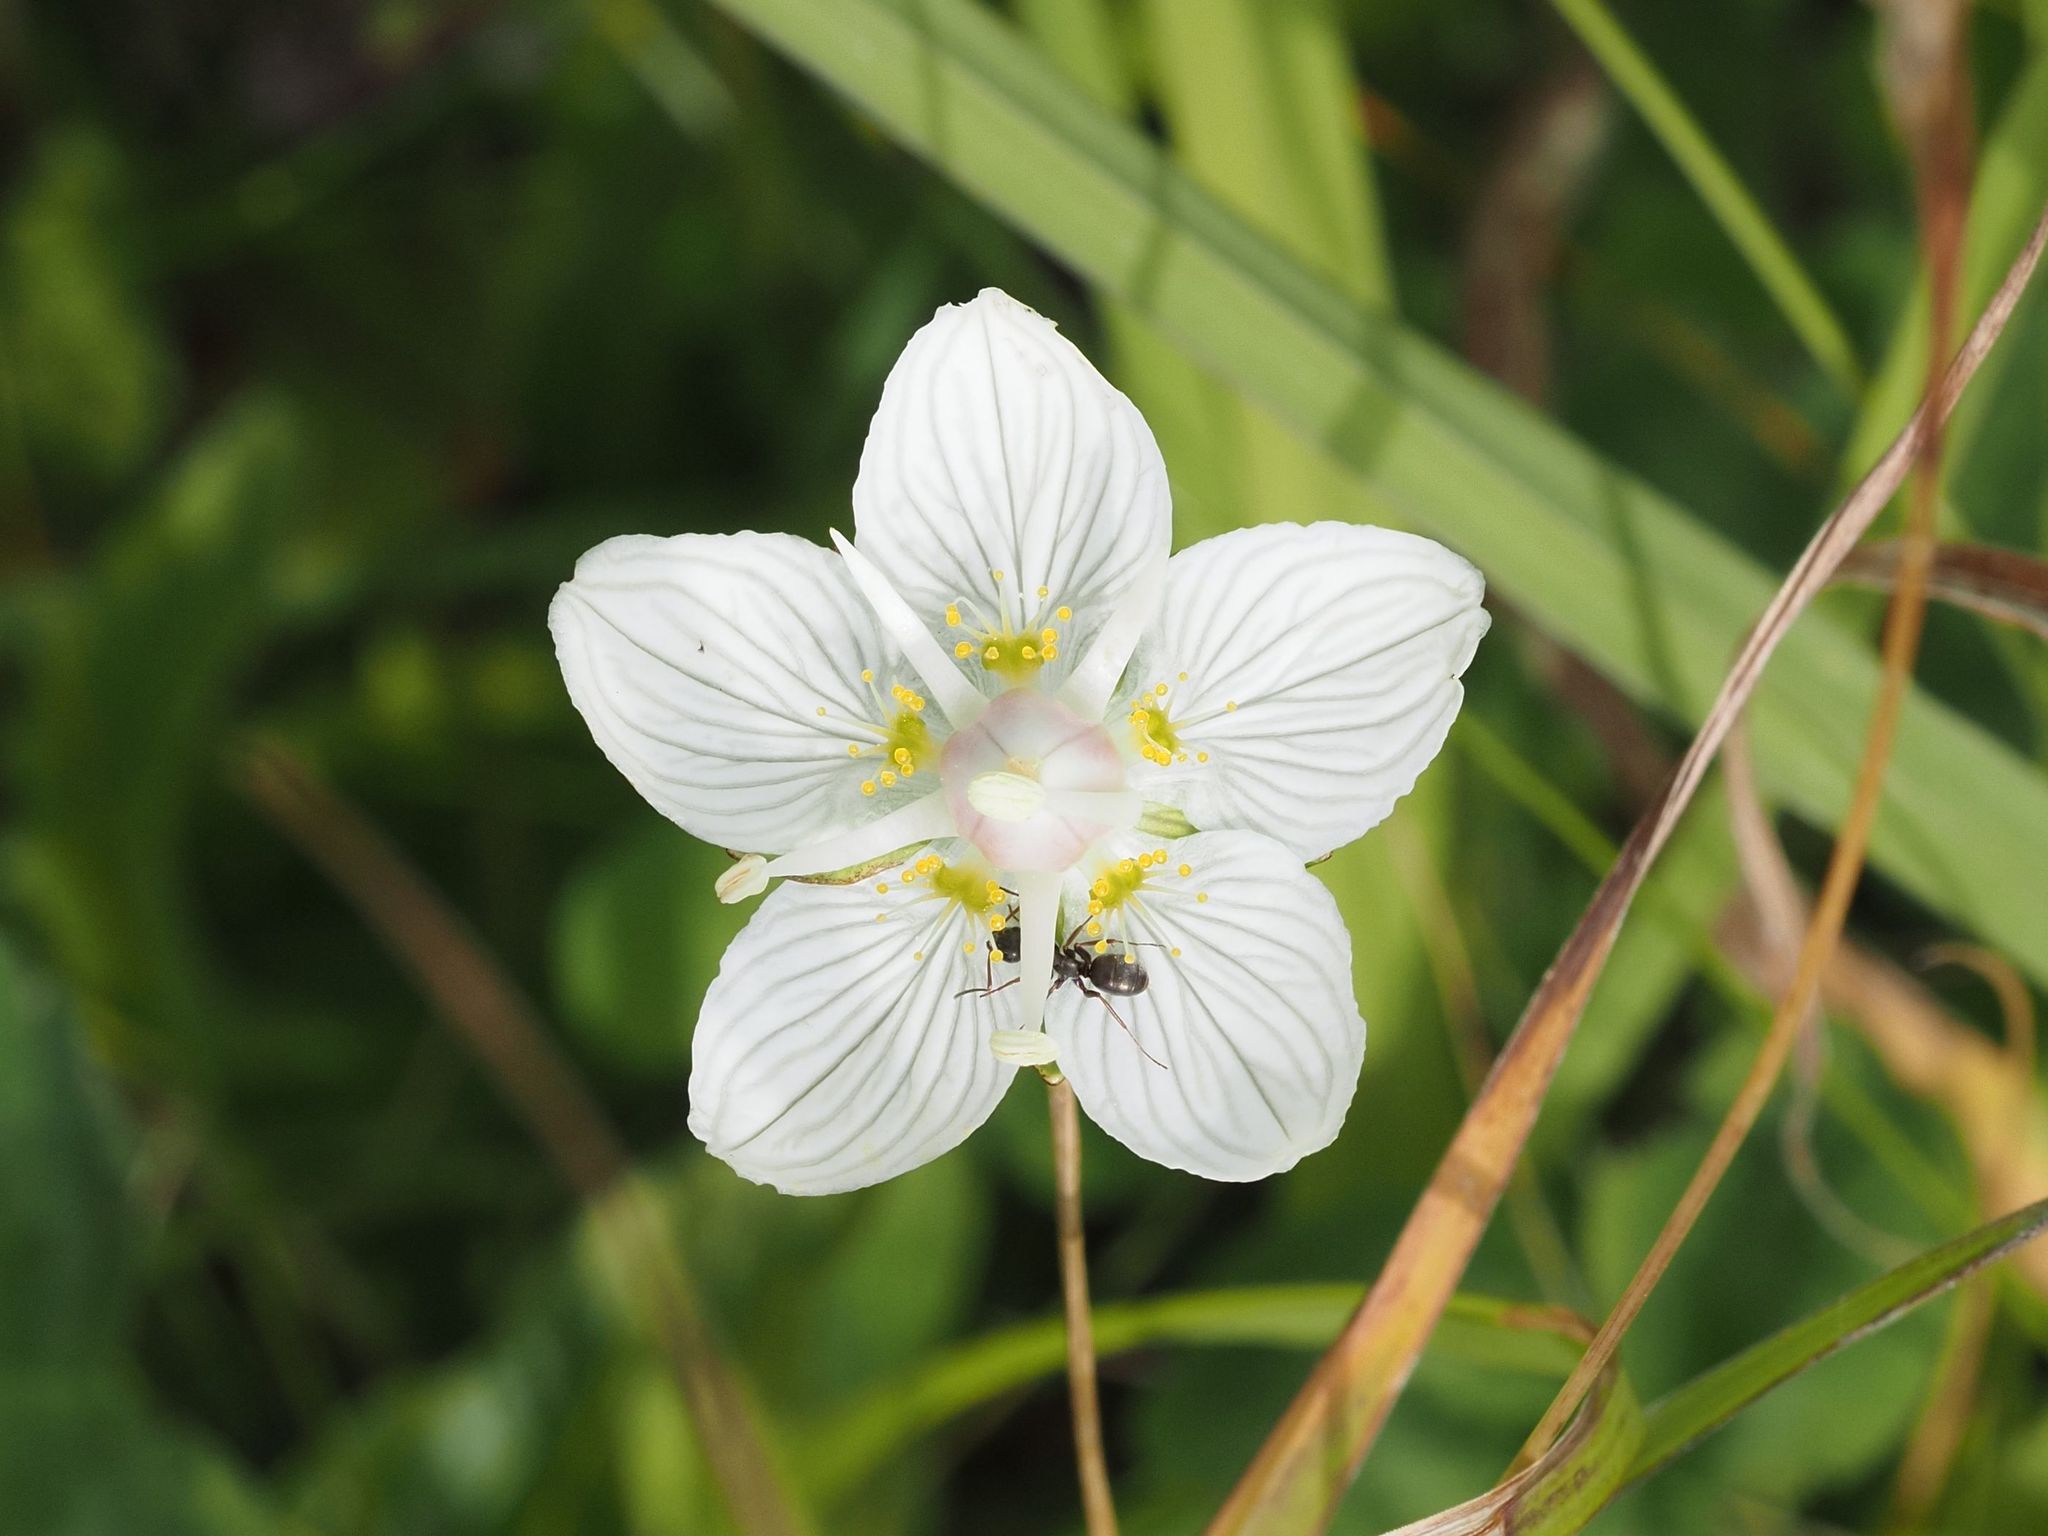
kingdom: Plantae
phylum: Tracheophyta
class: Magnoliopsida
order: Celastrales
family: Parnassiaceae
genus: Parnassia
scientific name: Parnassia palustris
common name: Grass-of-parnassus
